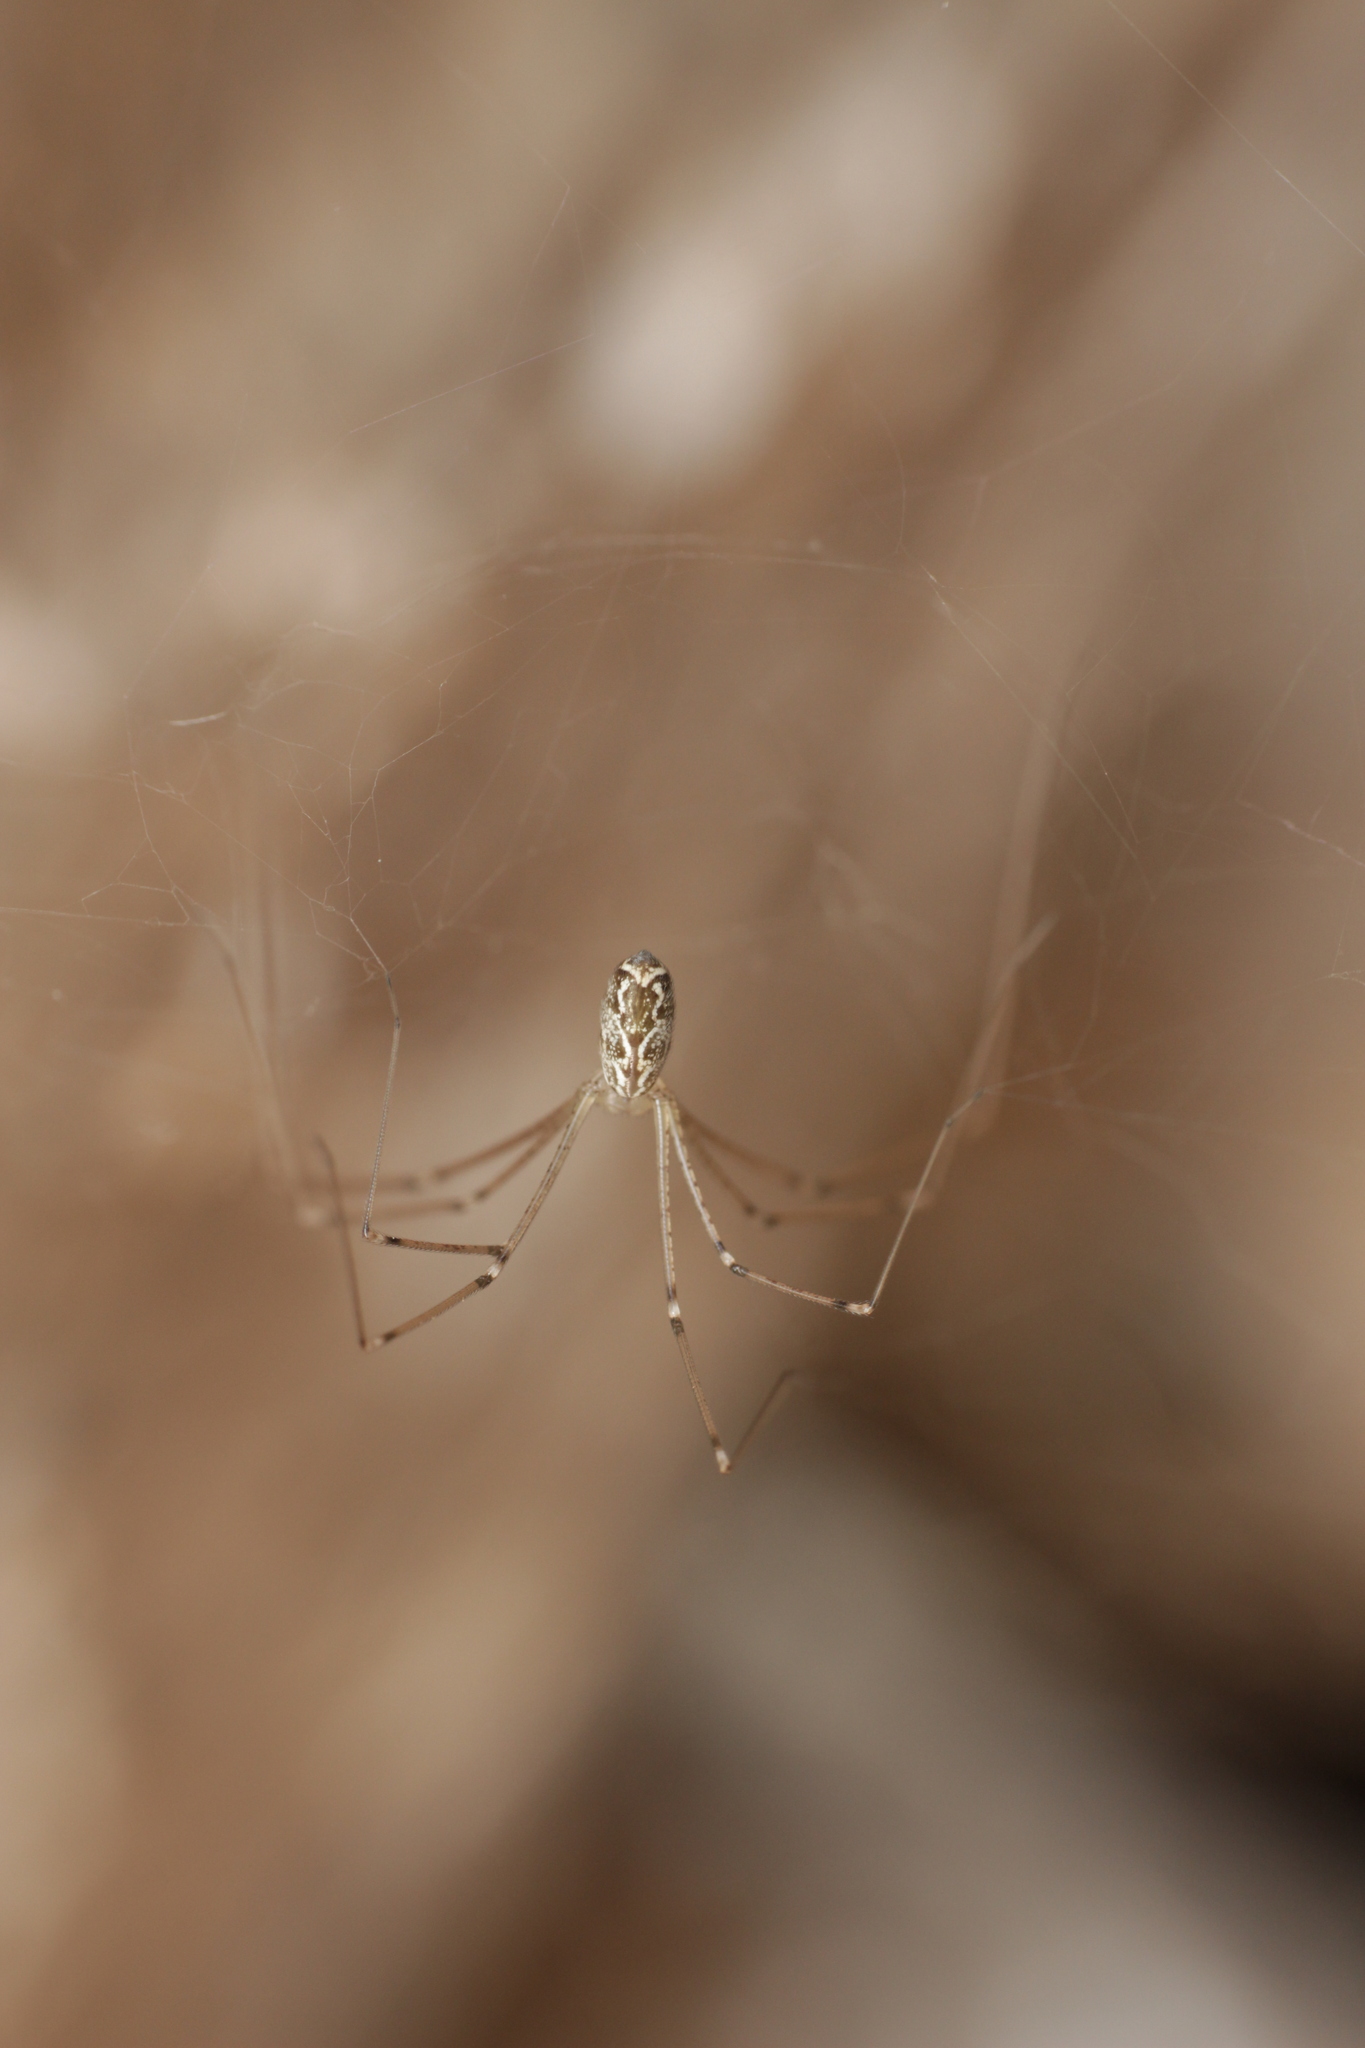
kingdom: Animalia
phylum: Arthropoda
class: Arachnida
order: Araneae
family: Pholcidae
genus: Holocnemus
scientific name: Holocnemus pluchei
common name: Marbled cellar spider
